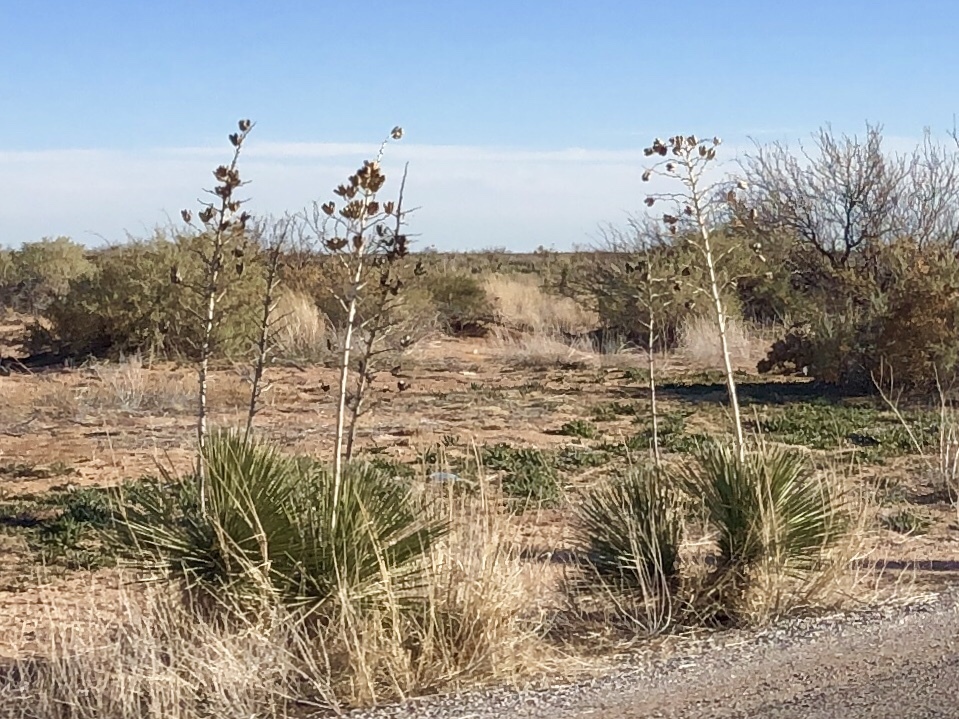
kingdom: Plantae
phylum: Tracheophyta
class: Liliopsida
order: Asparagales
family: Asparagaceae
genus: Yucca
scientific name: Yucca elata
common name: Palmella
